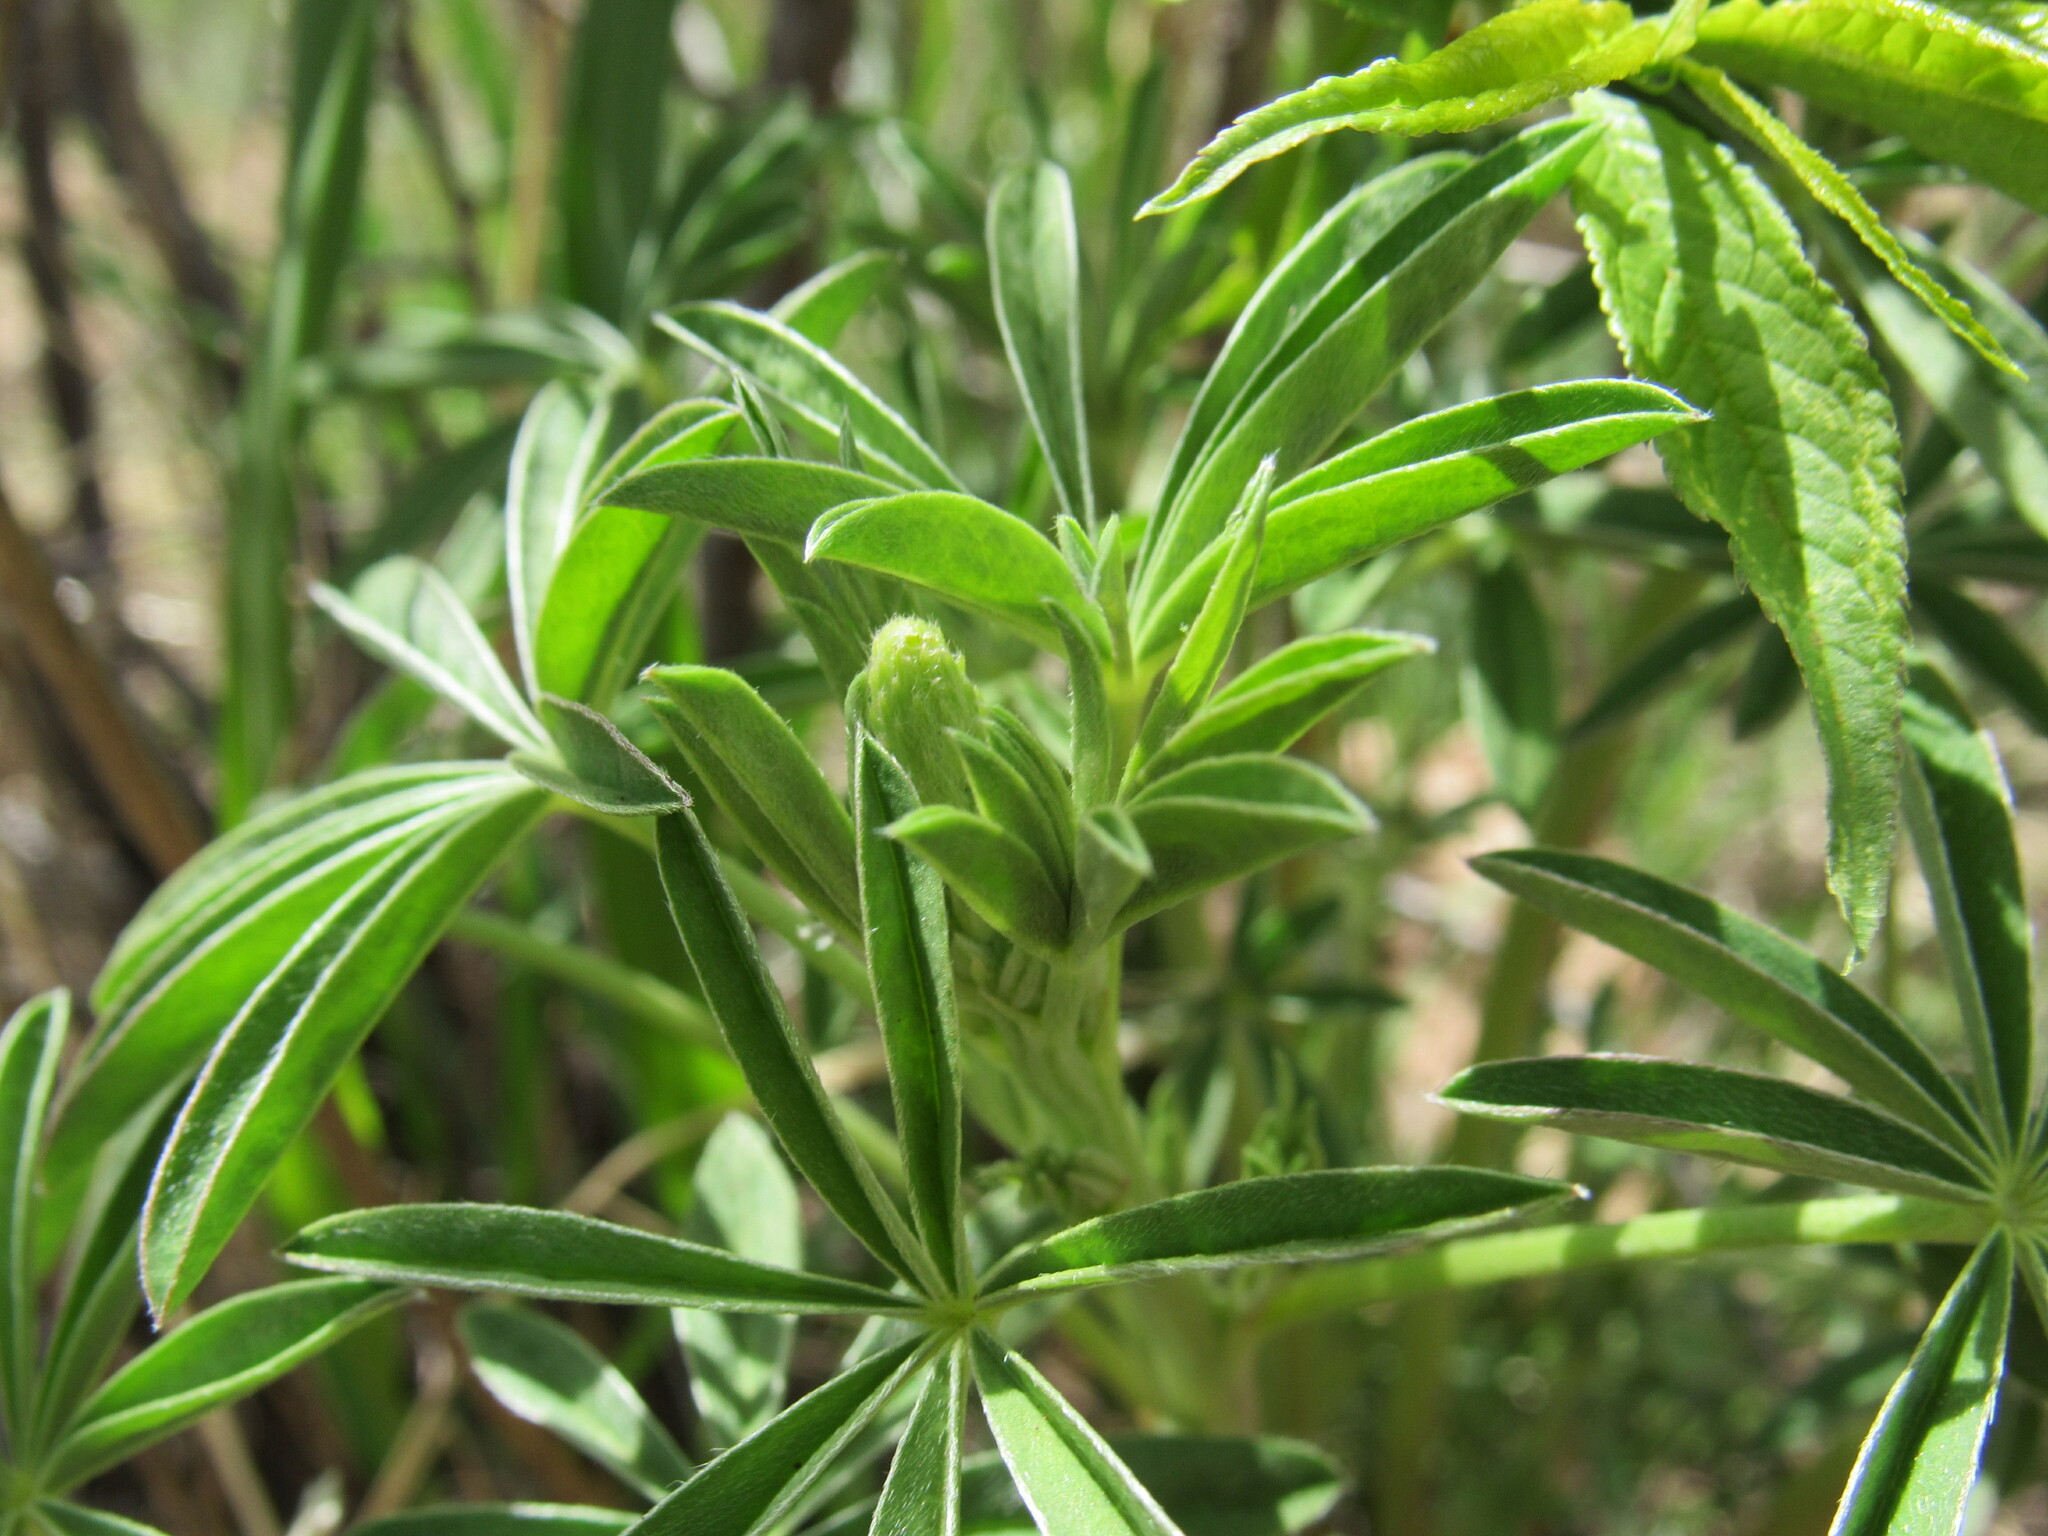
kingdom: Plantae
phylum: Tracheophyta
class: Magnoliopsida
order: Fabales
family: Fabaceae
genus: Lupinus
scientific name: Lupinus argenteus
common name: Silvery lupine
